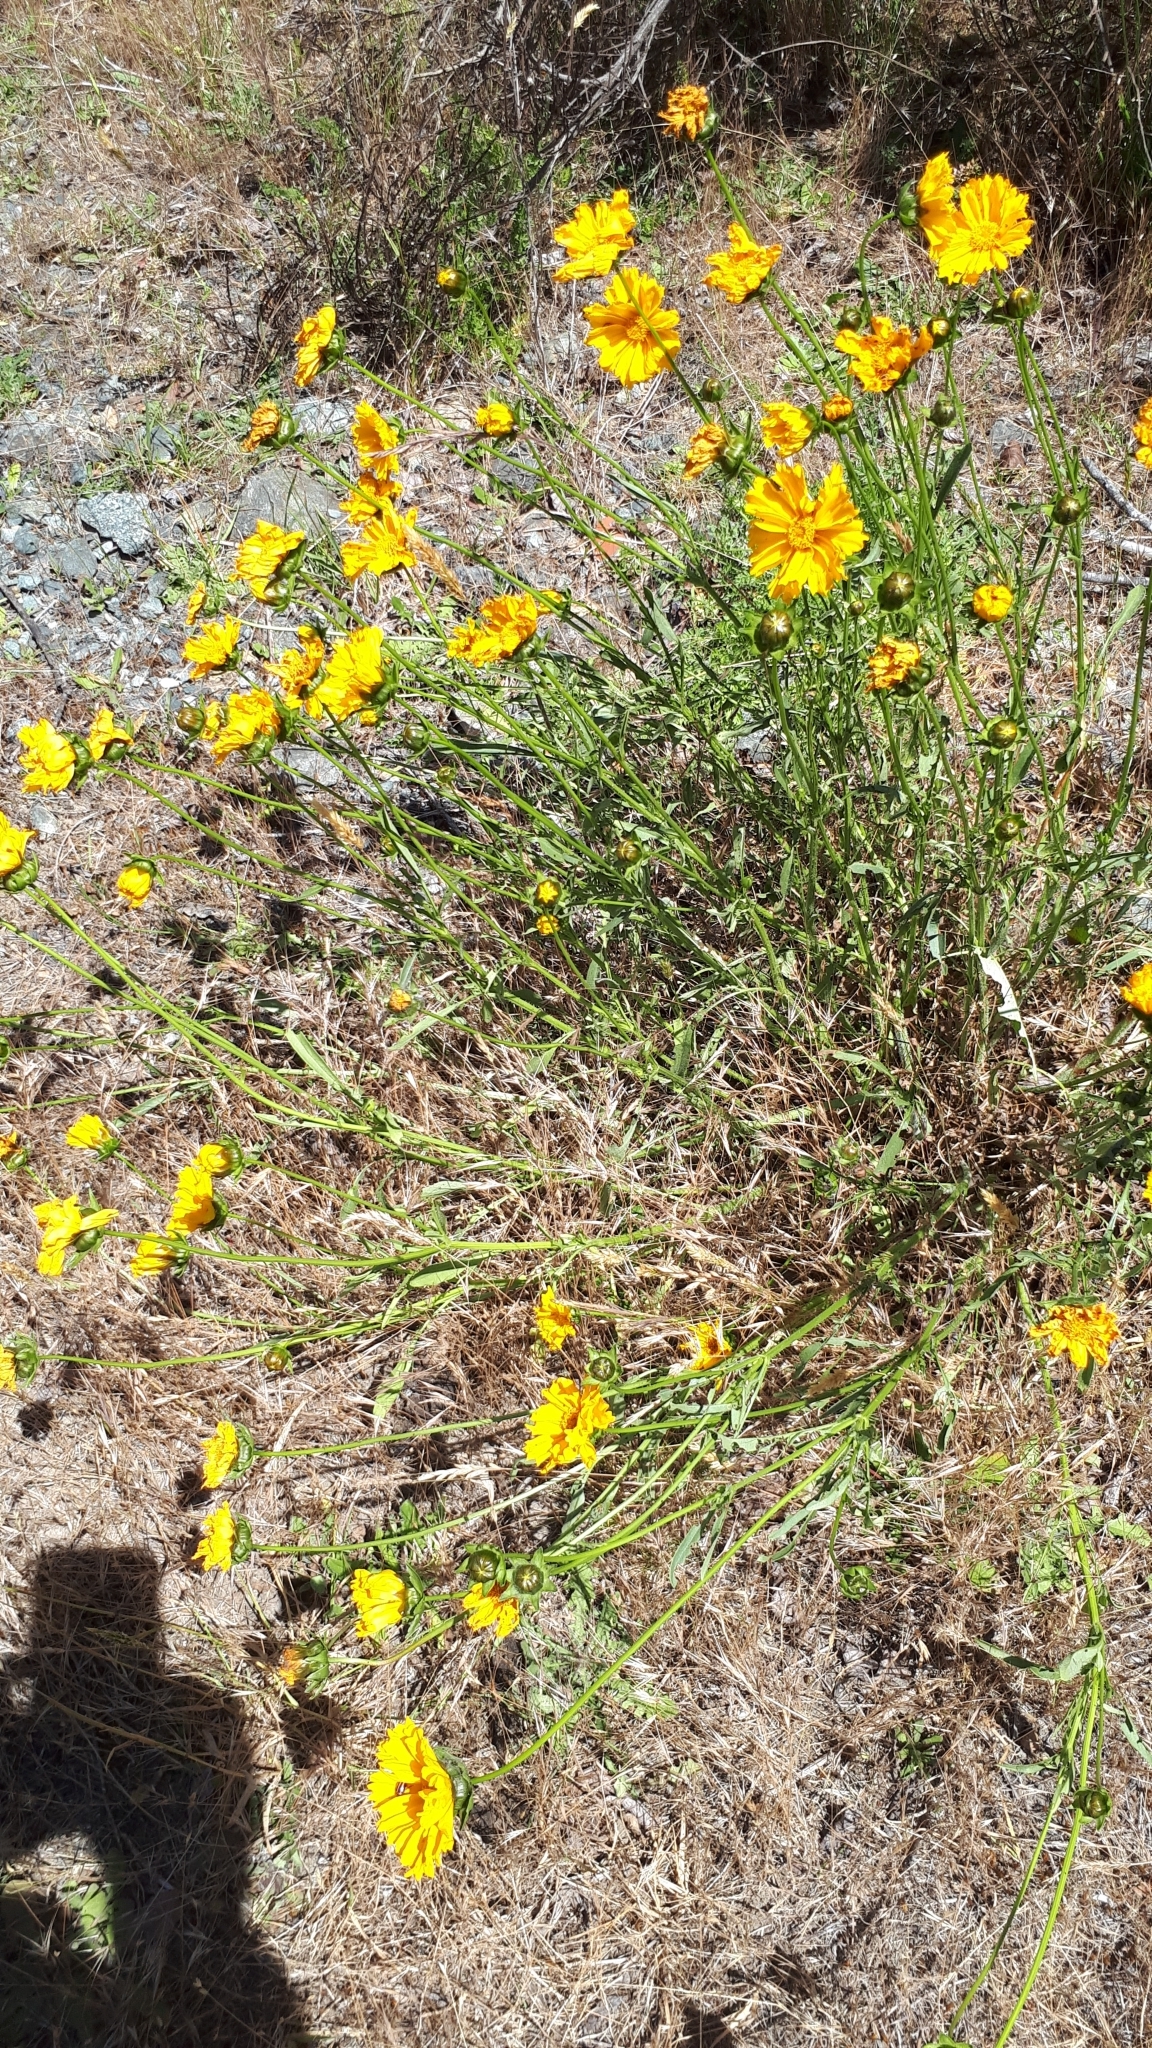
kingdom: Plantae
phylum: Tracheophyta
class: Magnoliopsida
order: Asterales
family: Asteraceae
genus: Coreopsis
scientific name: Coreopsis lanceolata
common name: Garden coreopsis
